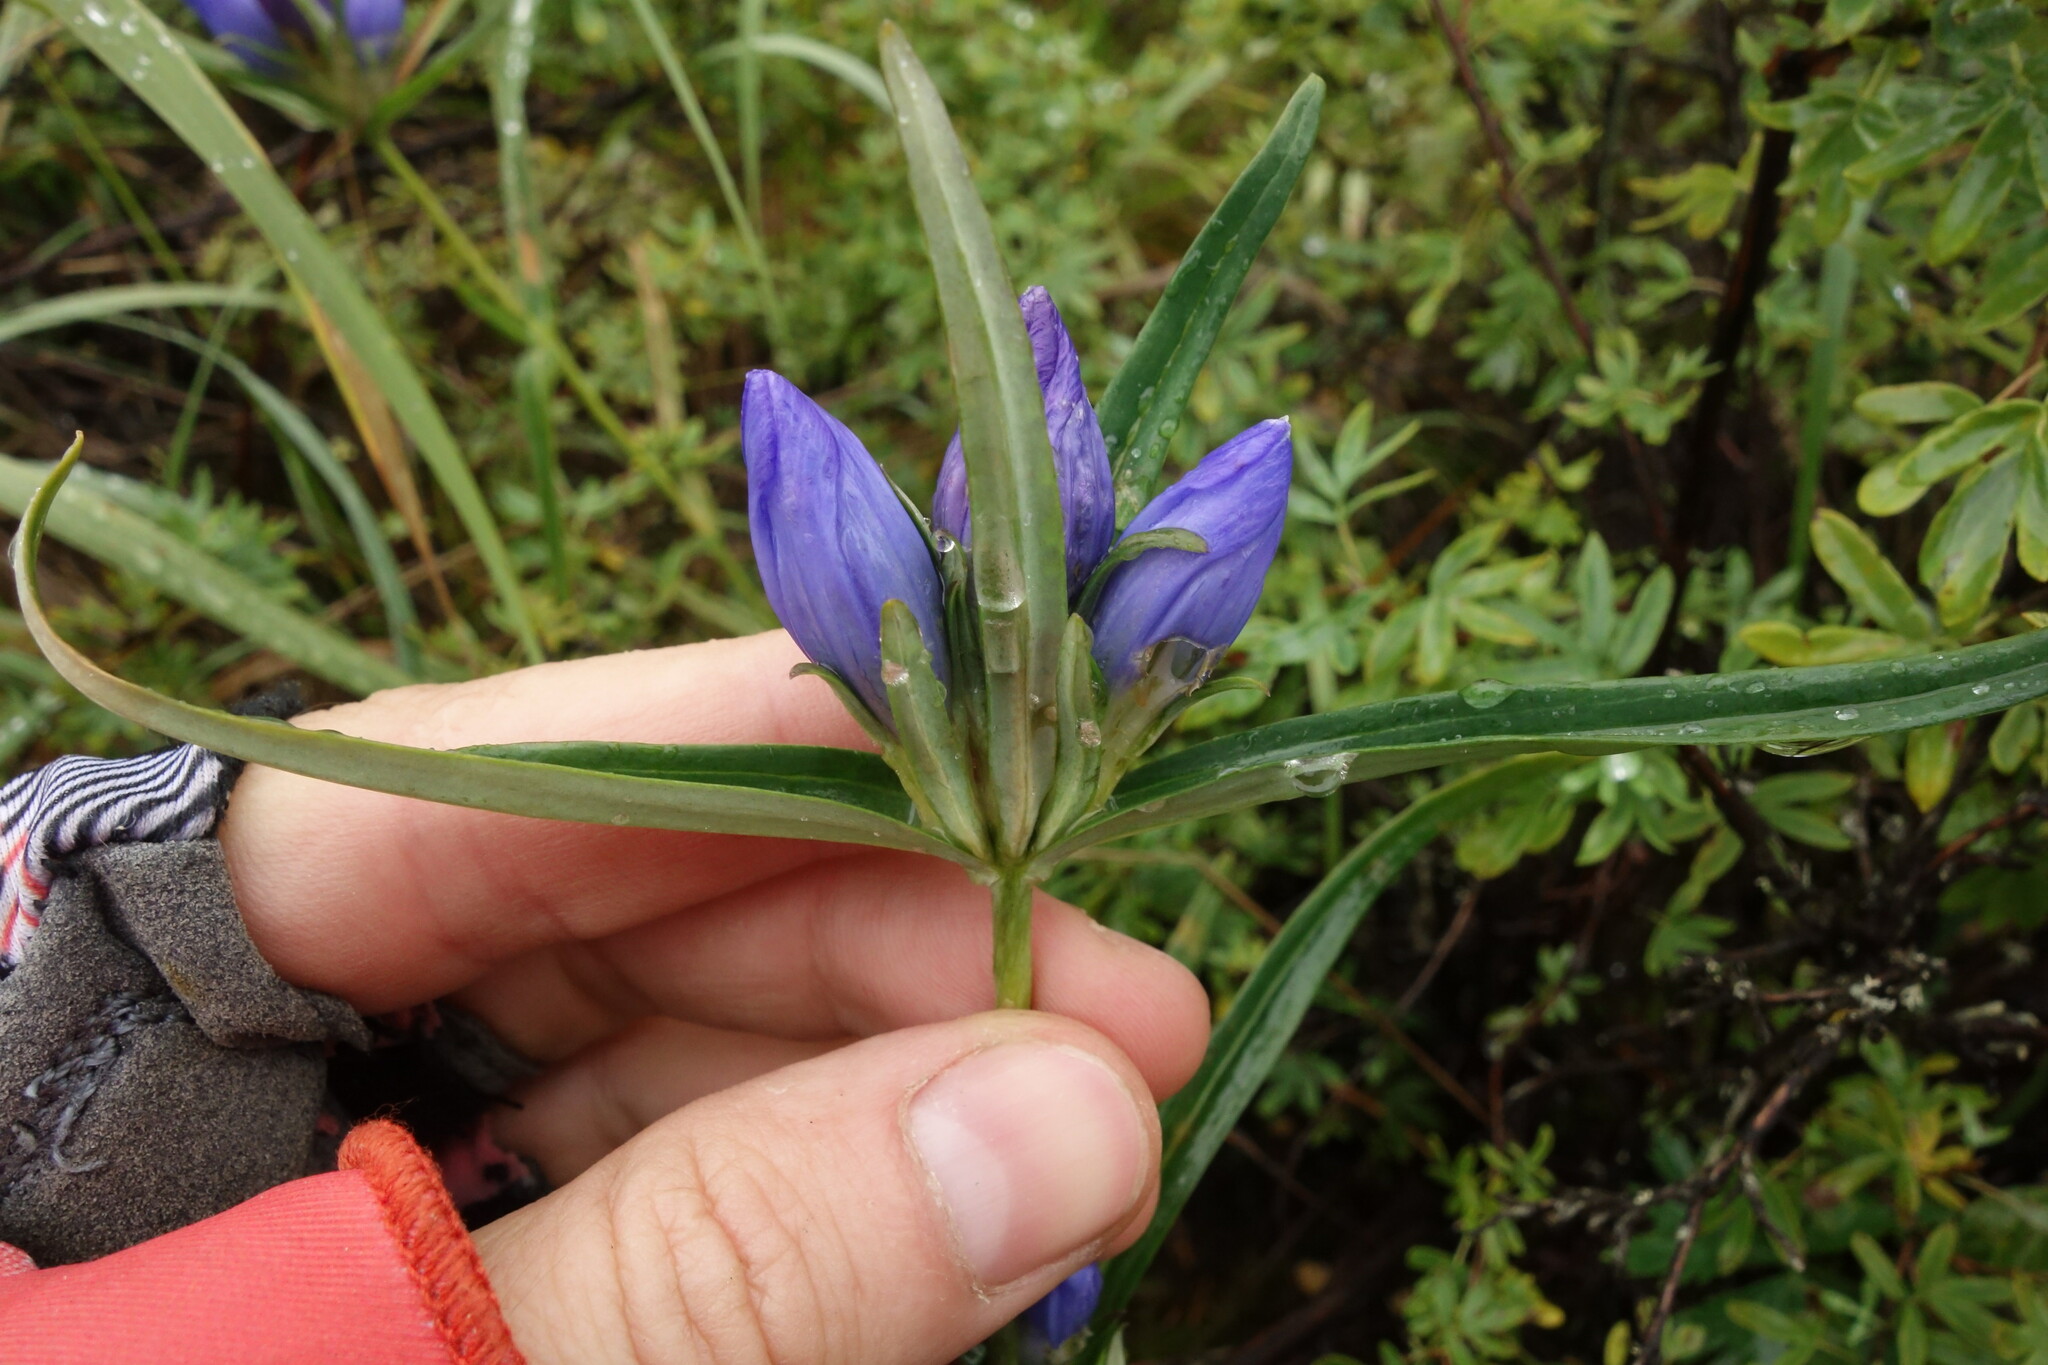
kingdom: Plantae
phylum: Tracheophyta
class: Magnoliopsida
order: Gentianales
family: Gentianaceae
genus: Gentiana
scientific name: Gentiana triflora
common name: Three-flower gentian
